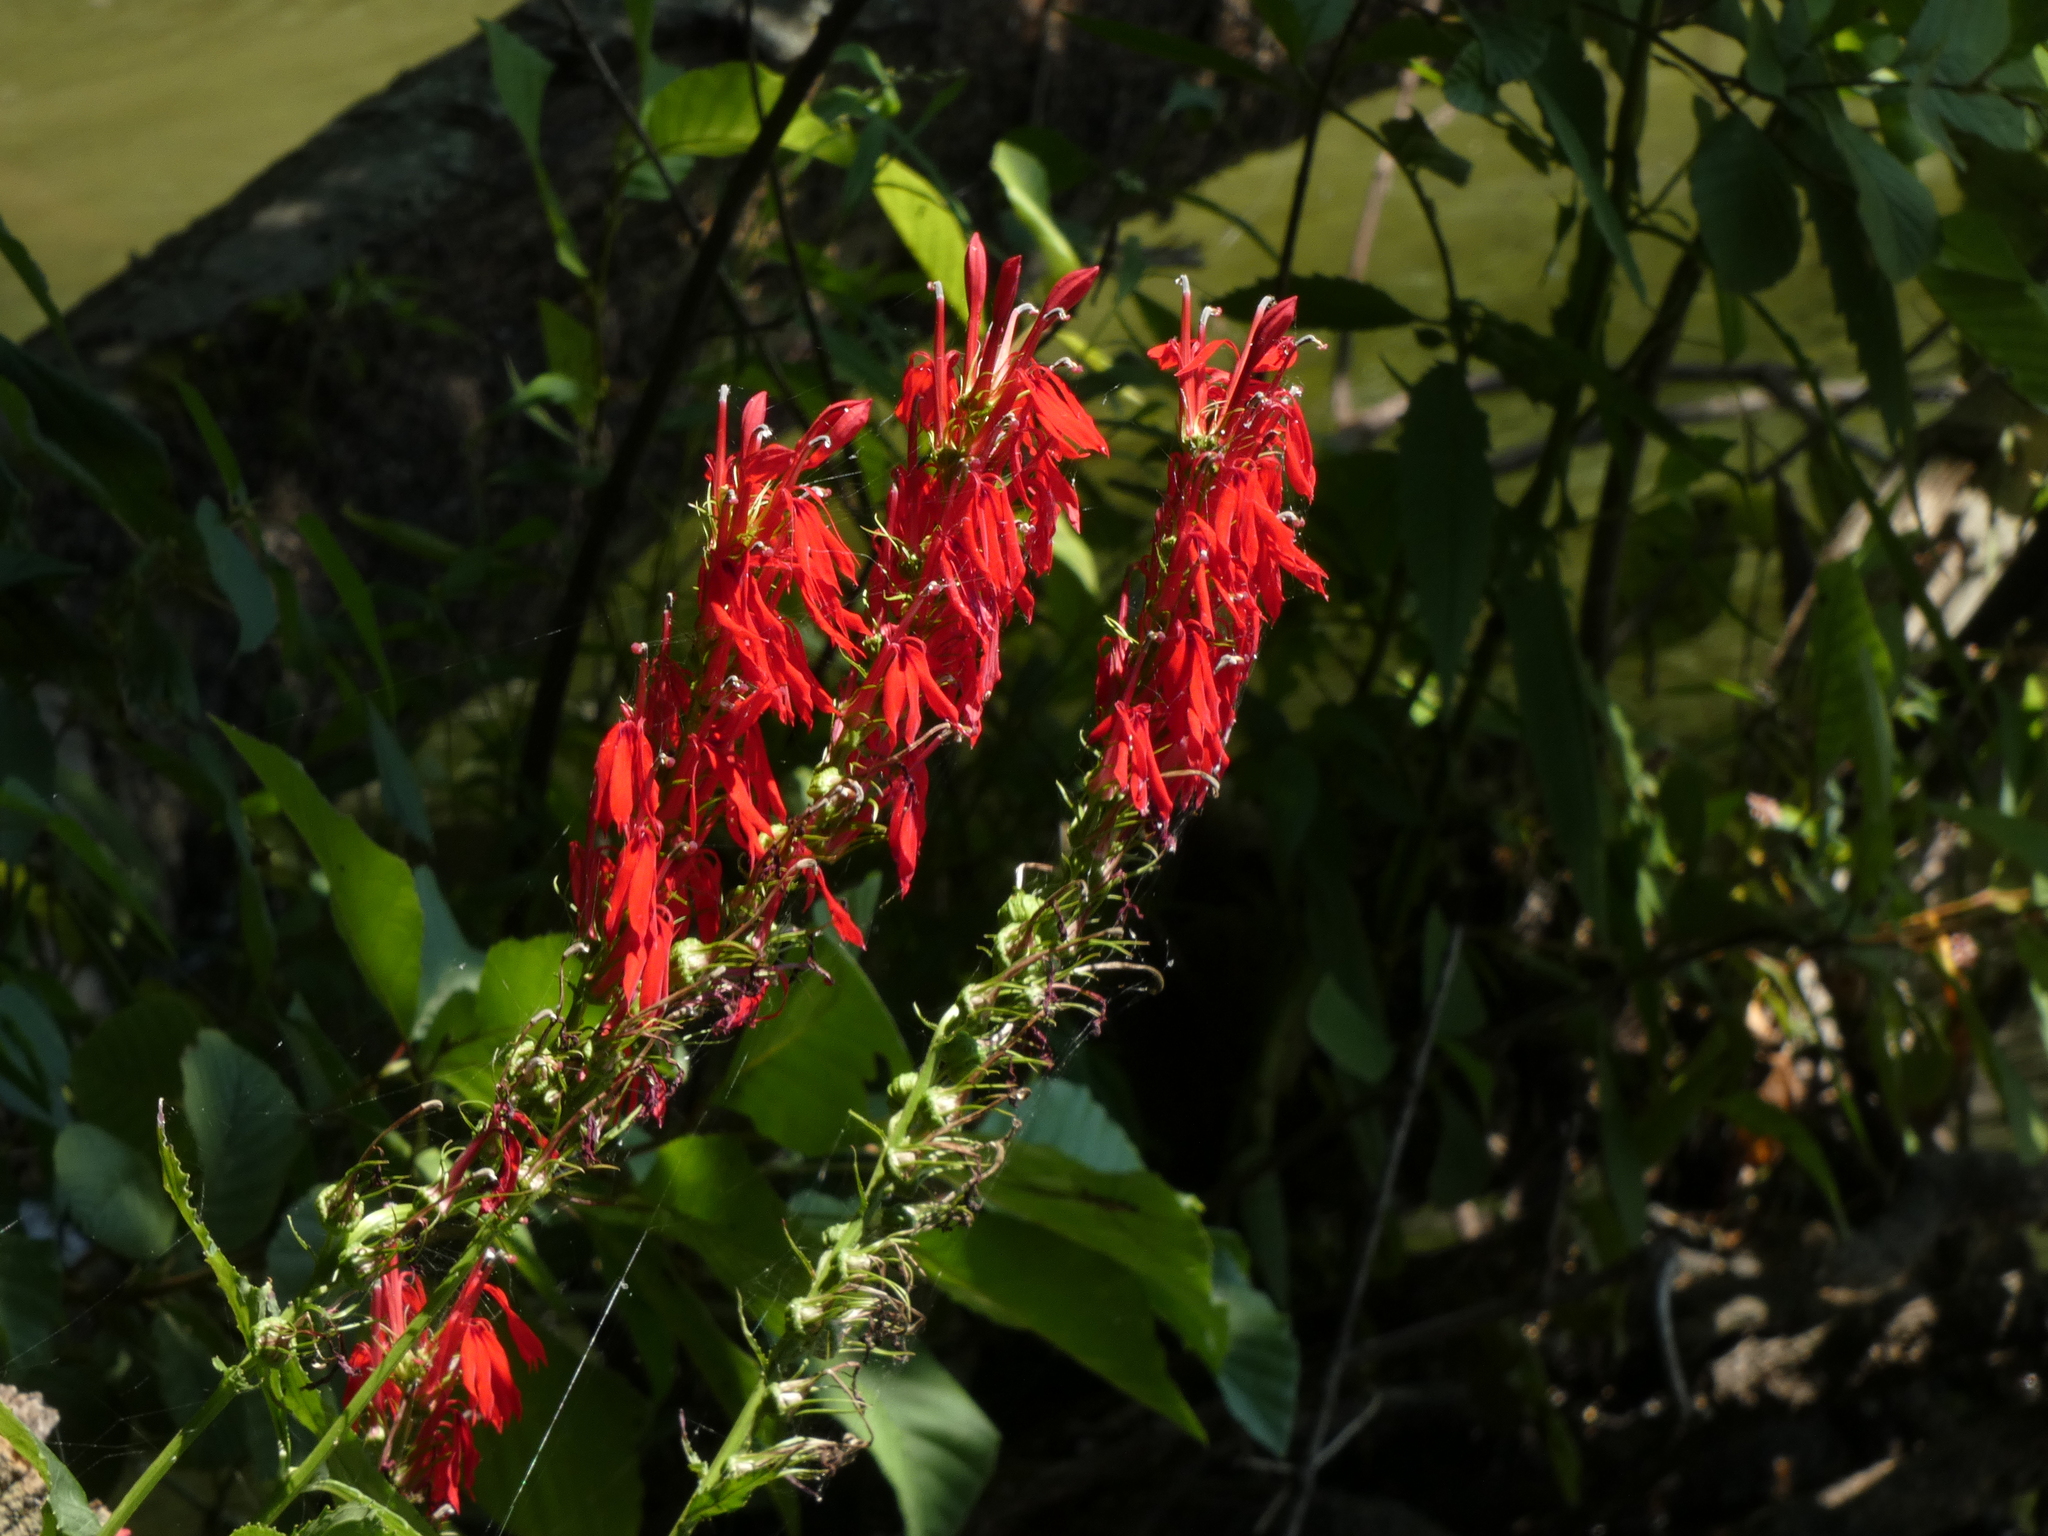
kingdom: Plantae
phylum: Tracheophyta
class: Magnoliopsida
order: Asterales
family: Campanulaceae
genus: Lobelia
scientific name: Lobelia cardinalis
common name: Cardinal flower
